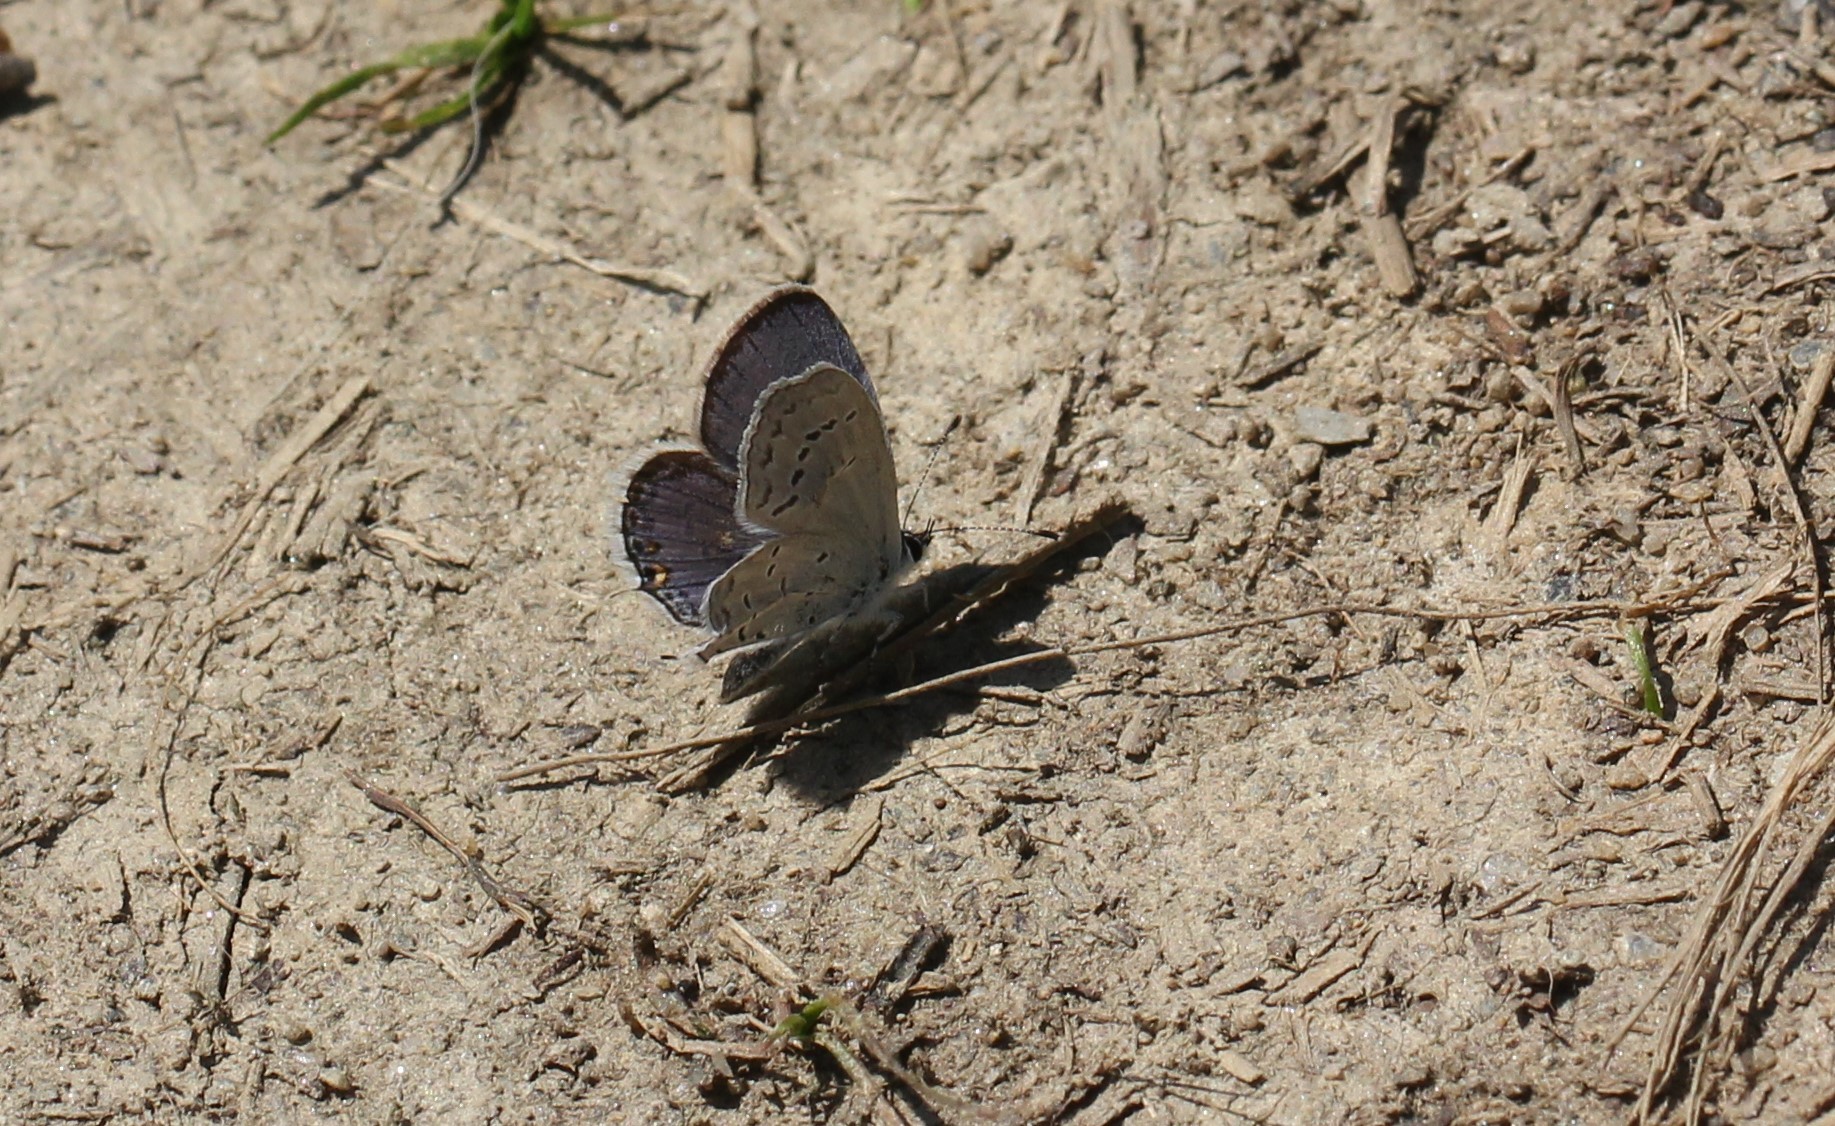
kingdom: Animalia
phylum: Arthropoda
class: Insecta
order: Lepidoptera
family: Lycaenidae
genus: Elkalyce
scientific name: Elkalyce comyntas
